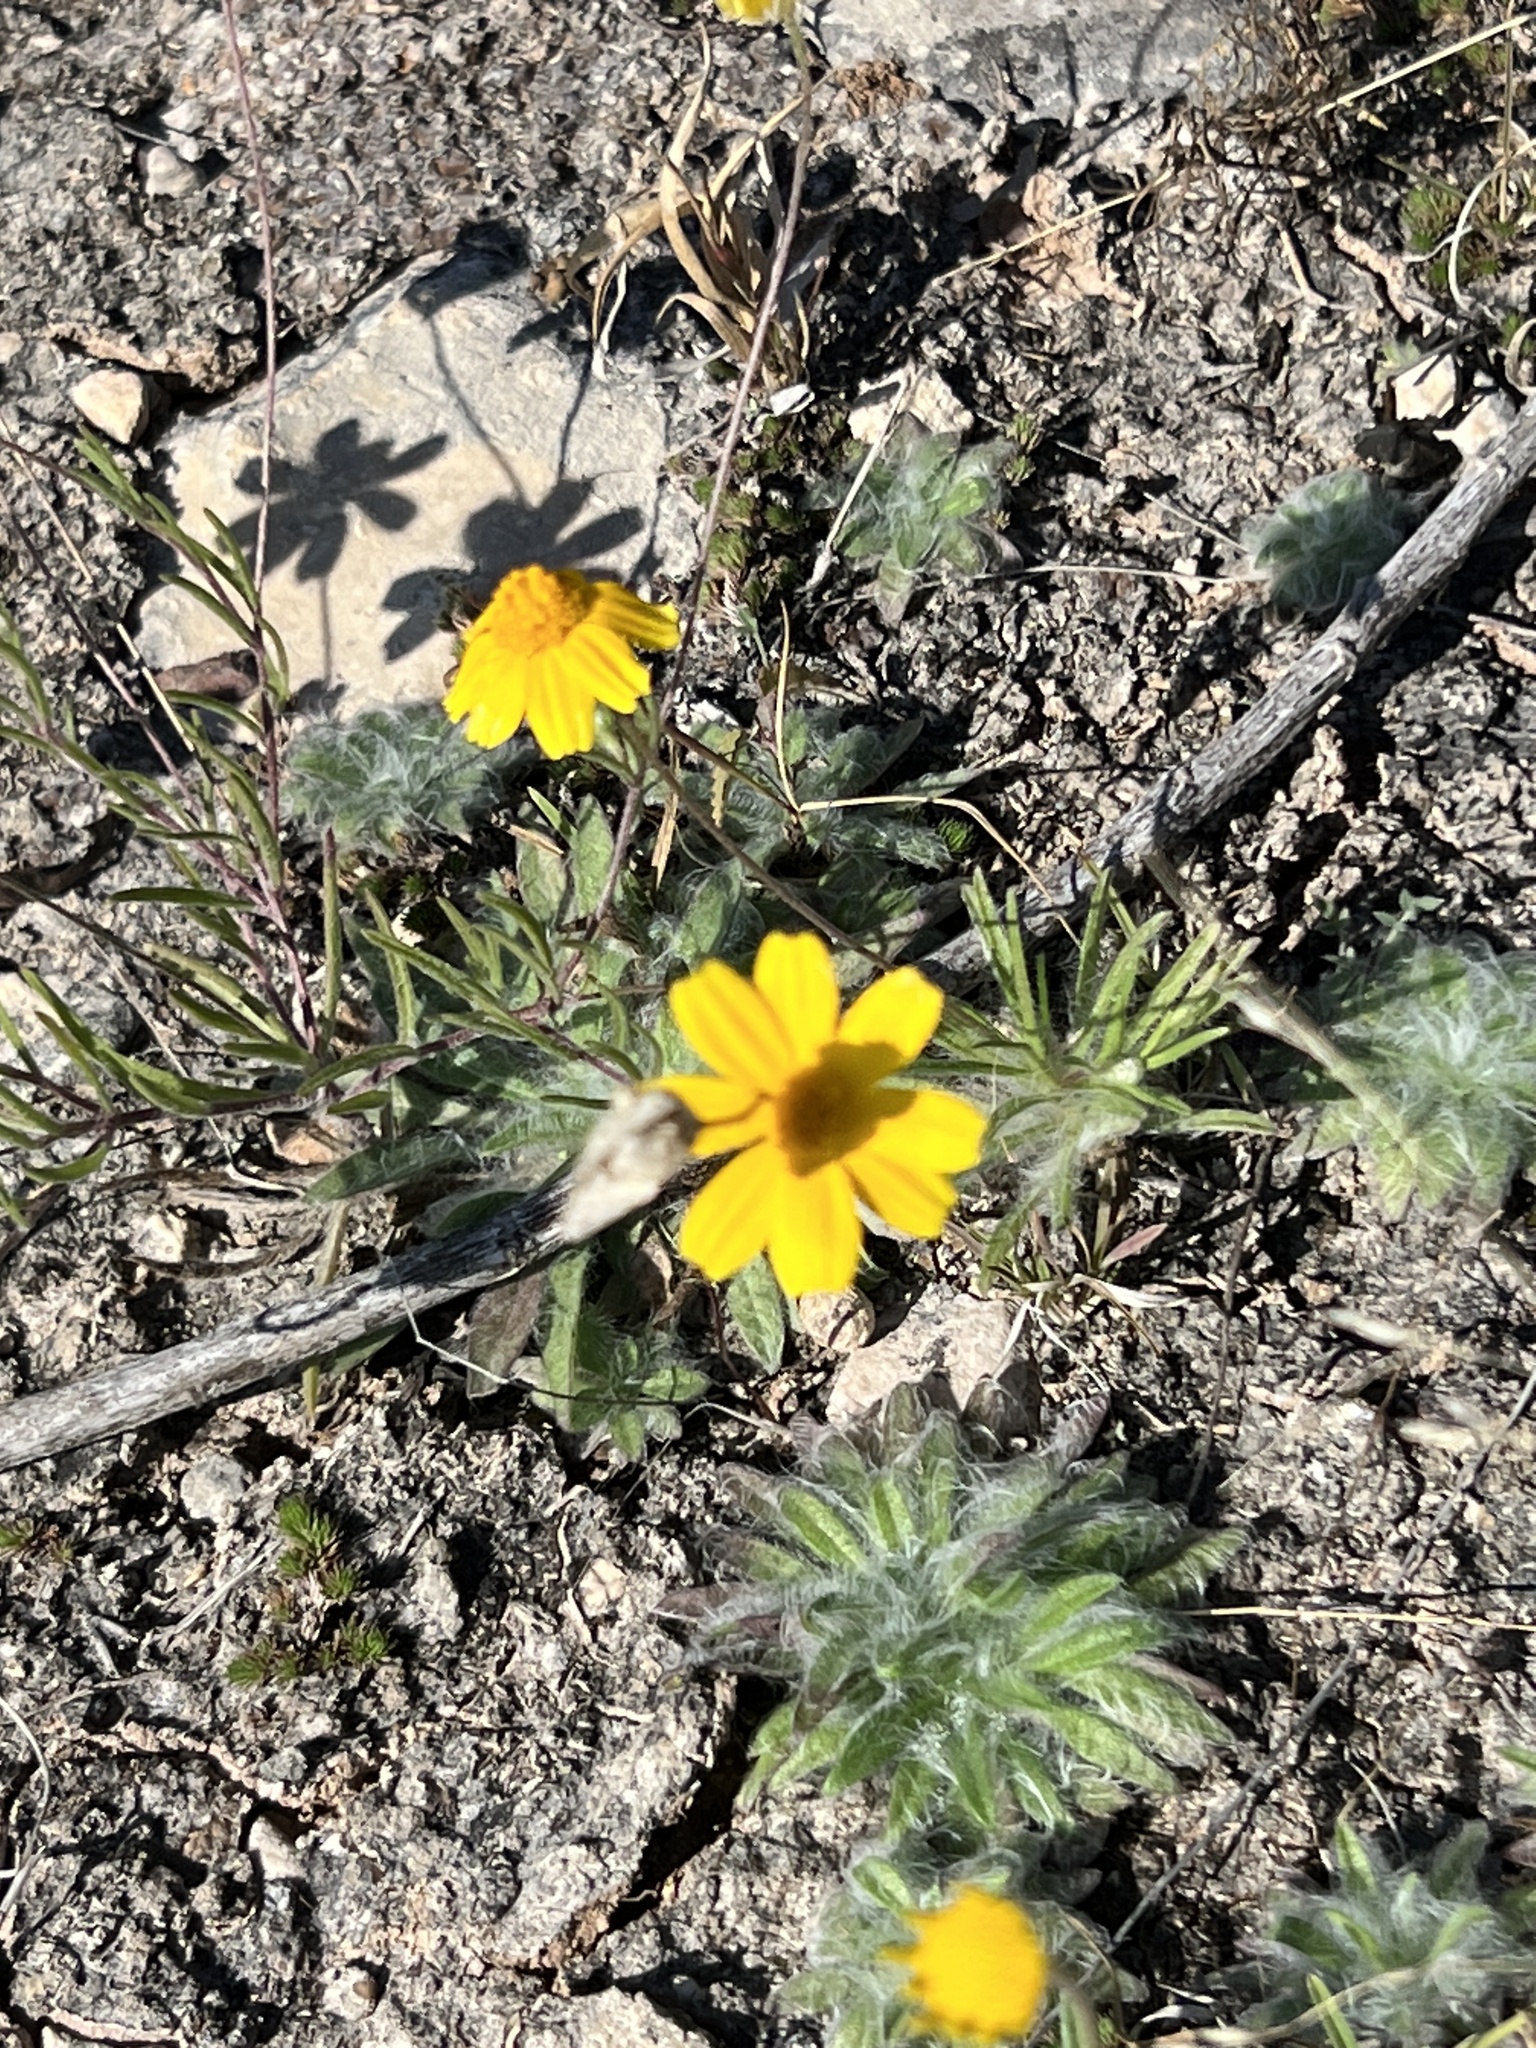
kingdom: Plantae
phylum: Tracheophyta
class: Magnoliopsida
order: Asterales
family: Asteraceae
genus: Tetraneuris
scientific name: Tetraneuris scaposa
